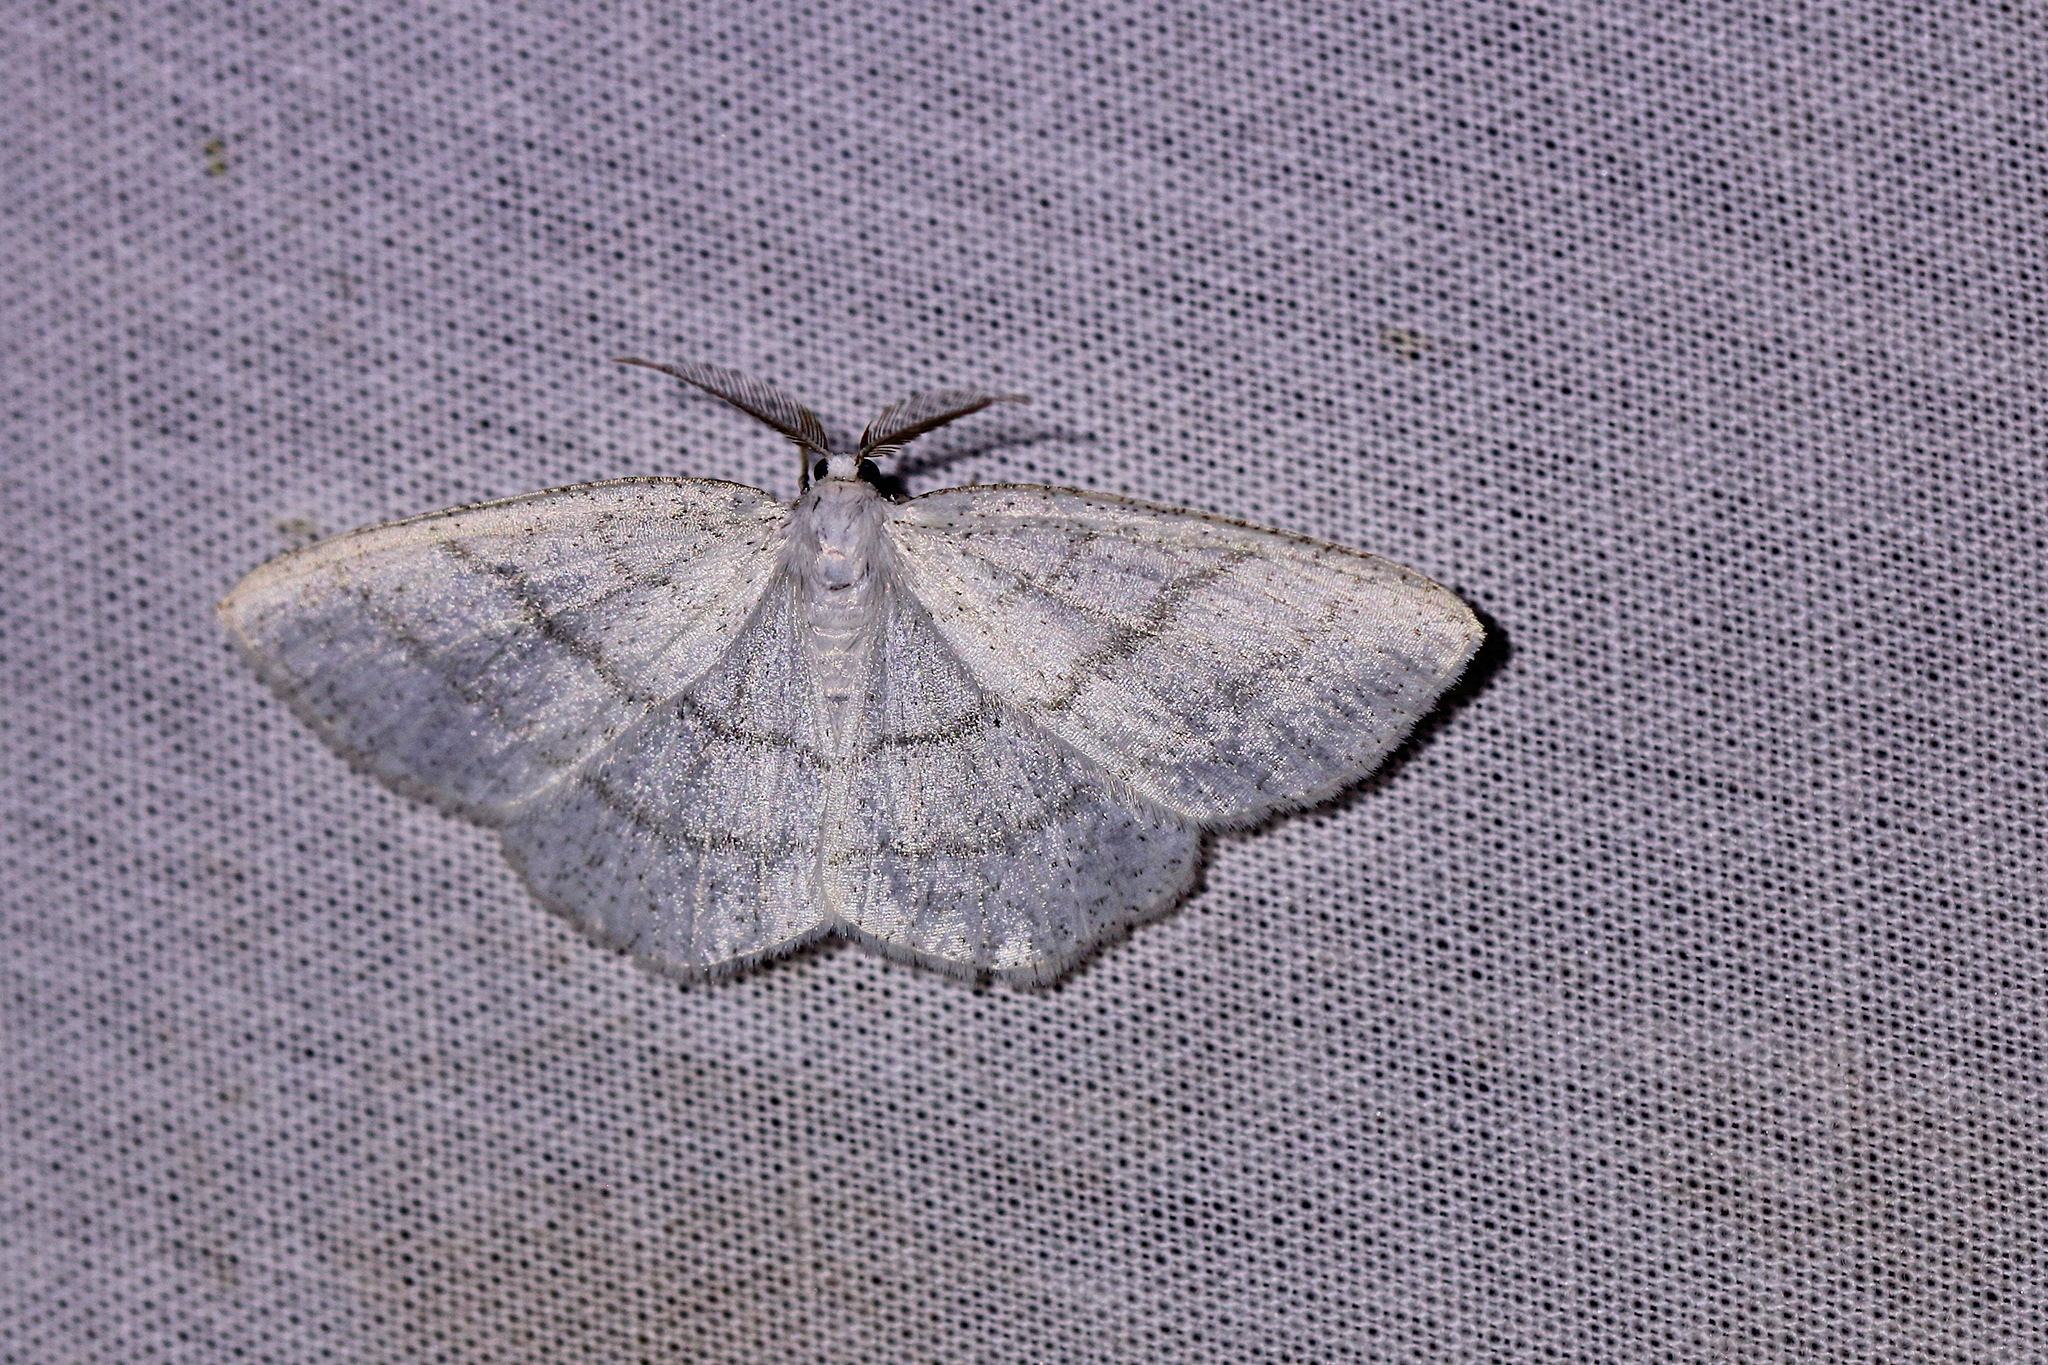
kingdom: Animalia
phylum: Arthropoda
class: Insecta
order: Lepidoptera
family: Geometridae
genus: Cabera
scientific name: Cabera pusaria
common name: Common white wave
